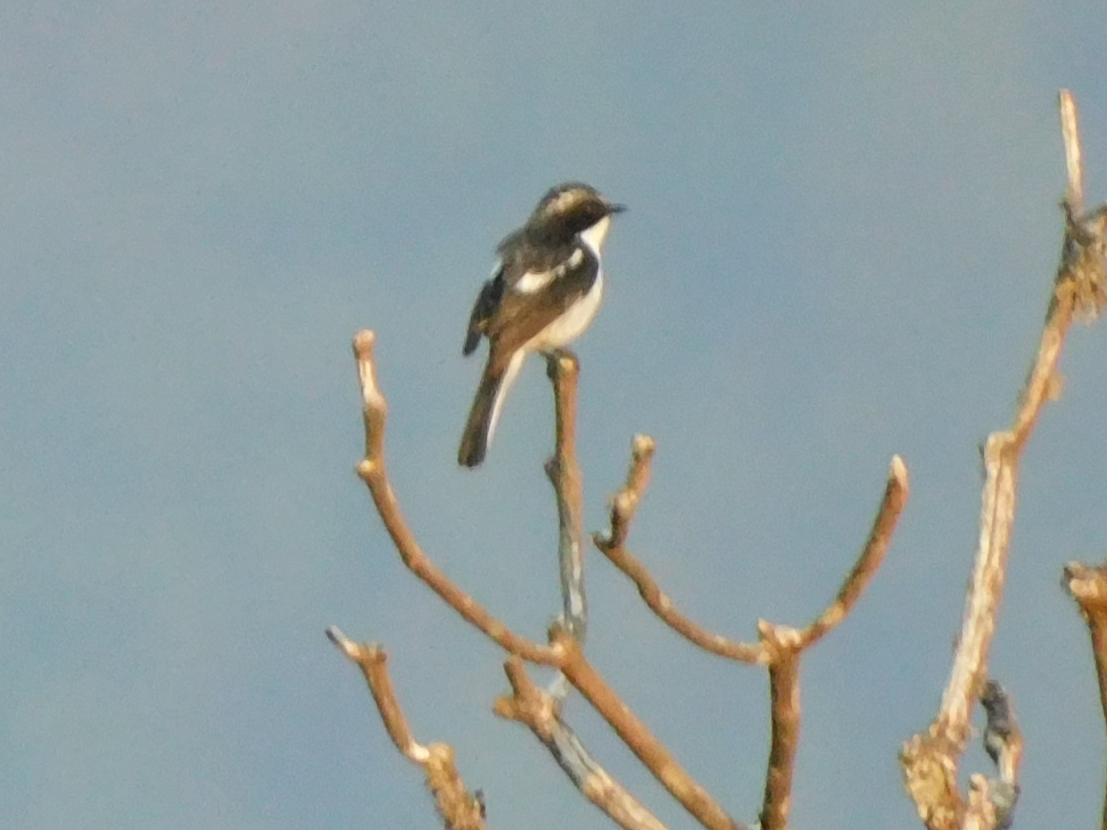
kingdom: Animalia
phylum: Chordata
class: Aves
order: Passeriformes
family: Muscicapidae
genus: Saxicola
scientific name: Saxicola ferreus
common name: Grey bush chat
